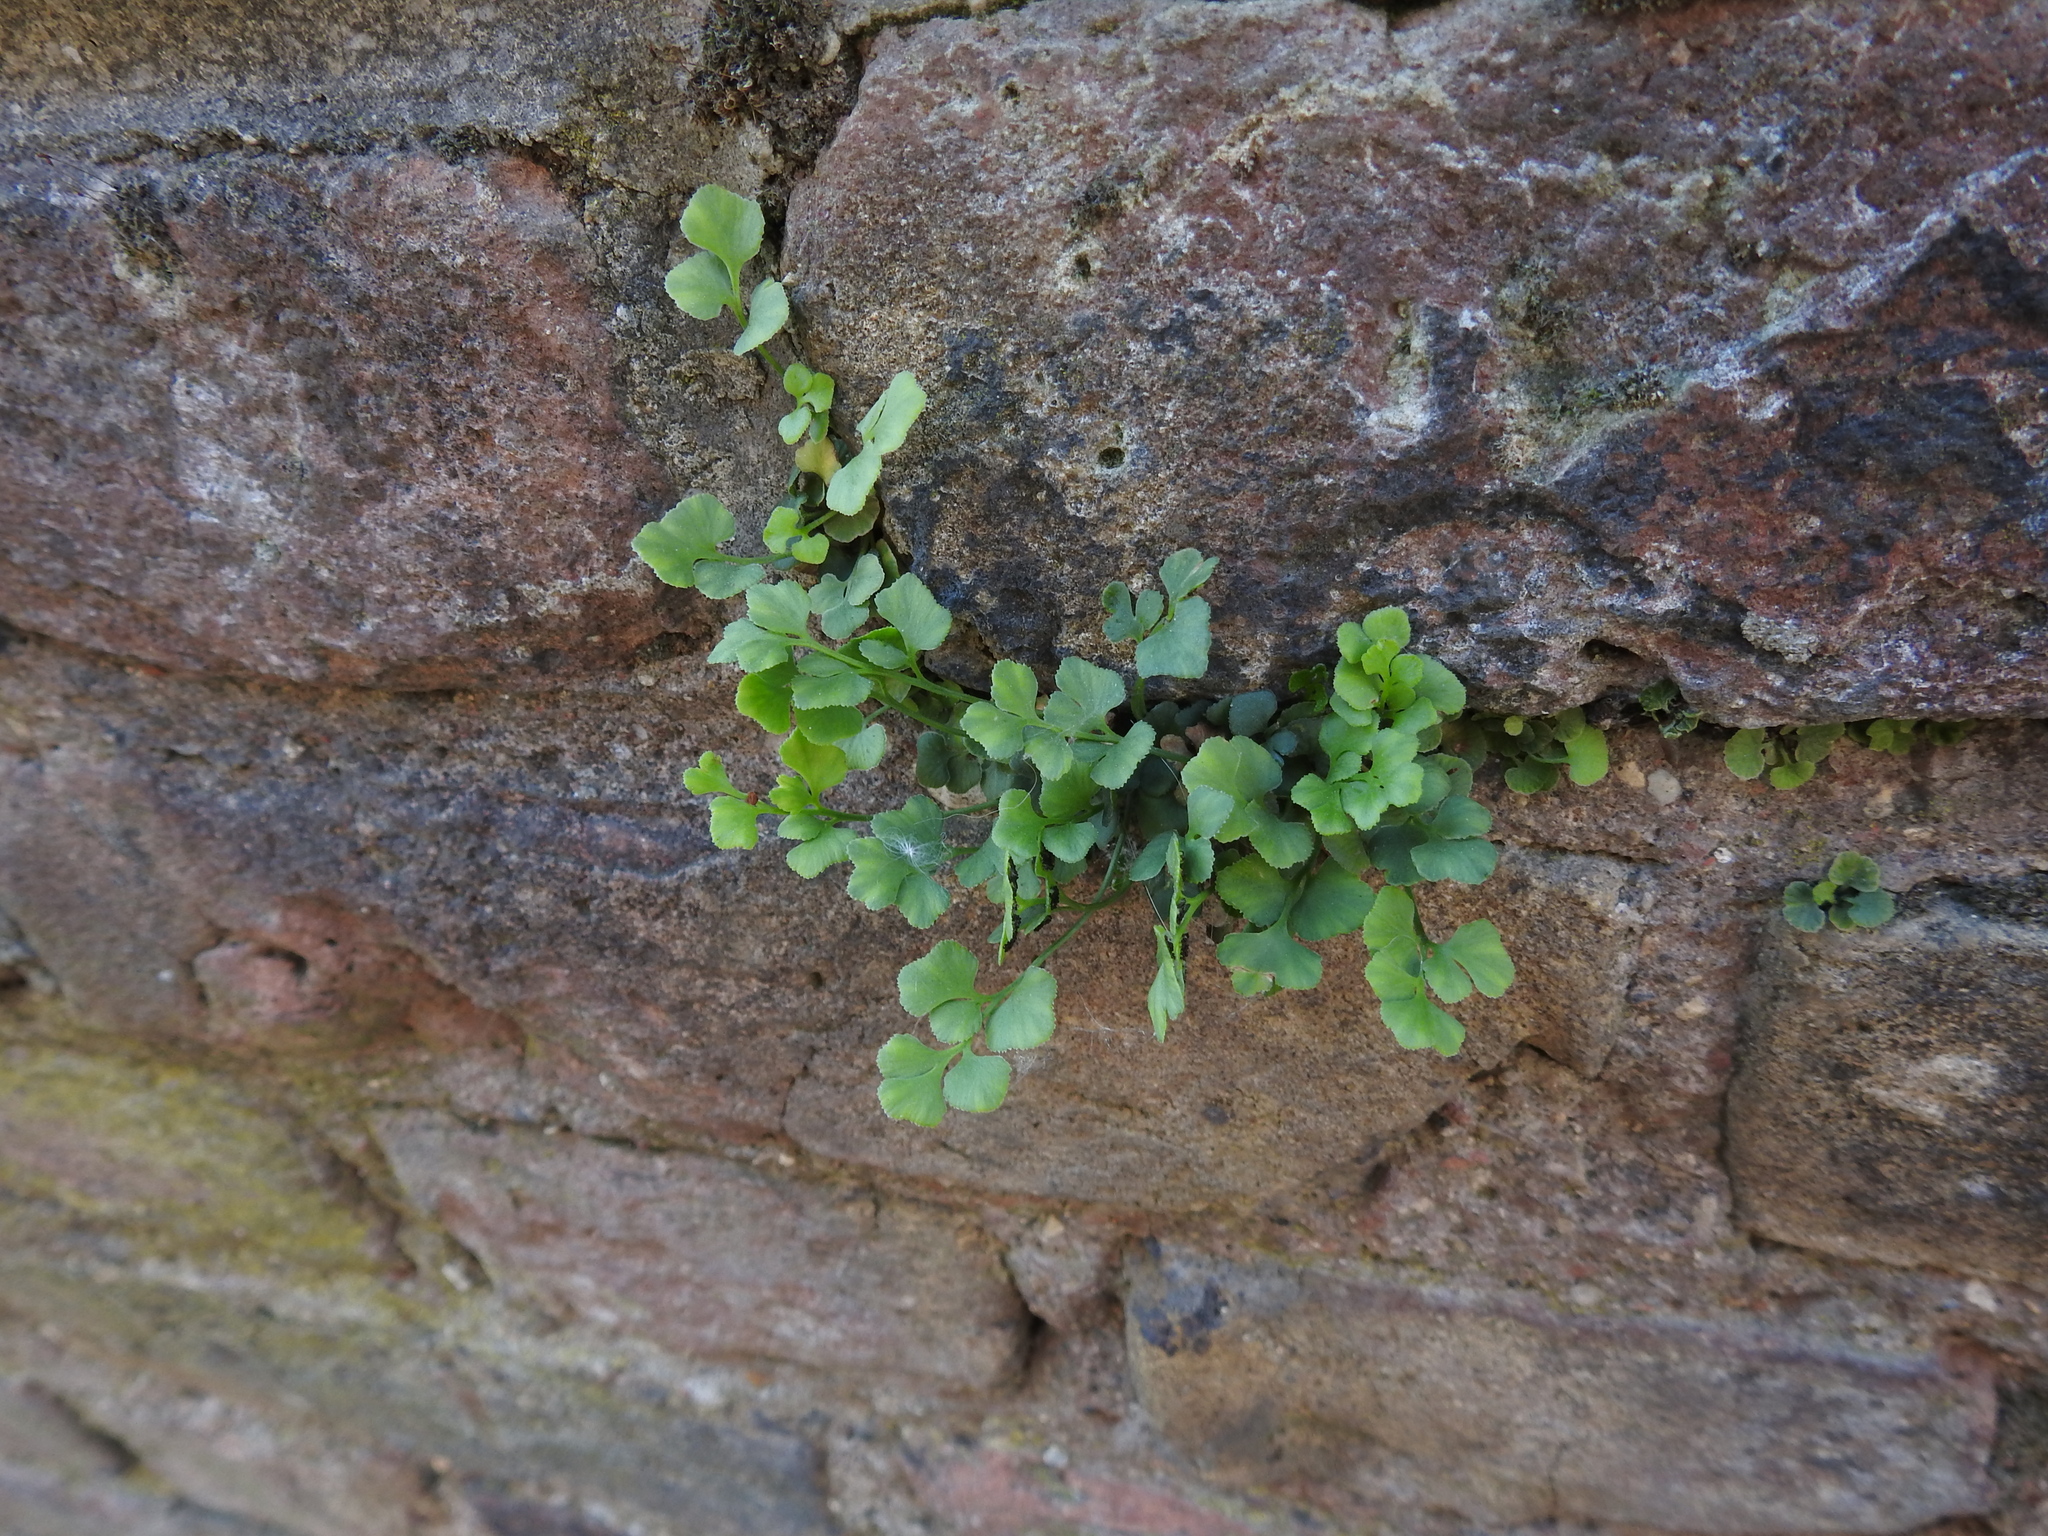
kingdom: Plantae
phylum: Tracheophyta
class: Polypodiopsida
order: Polypodiales
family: Aspleniaceae
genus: Asplenium
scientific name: Asplenium ruta-muraria
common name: Wall-rue
